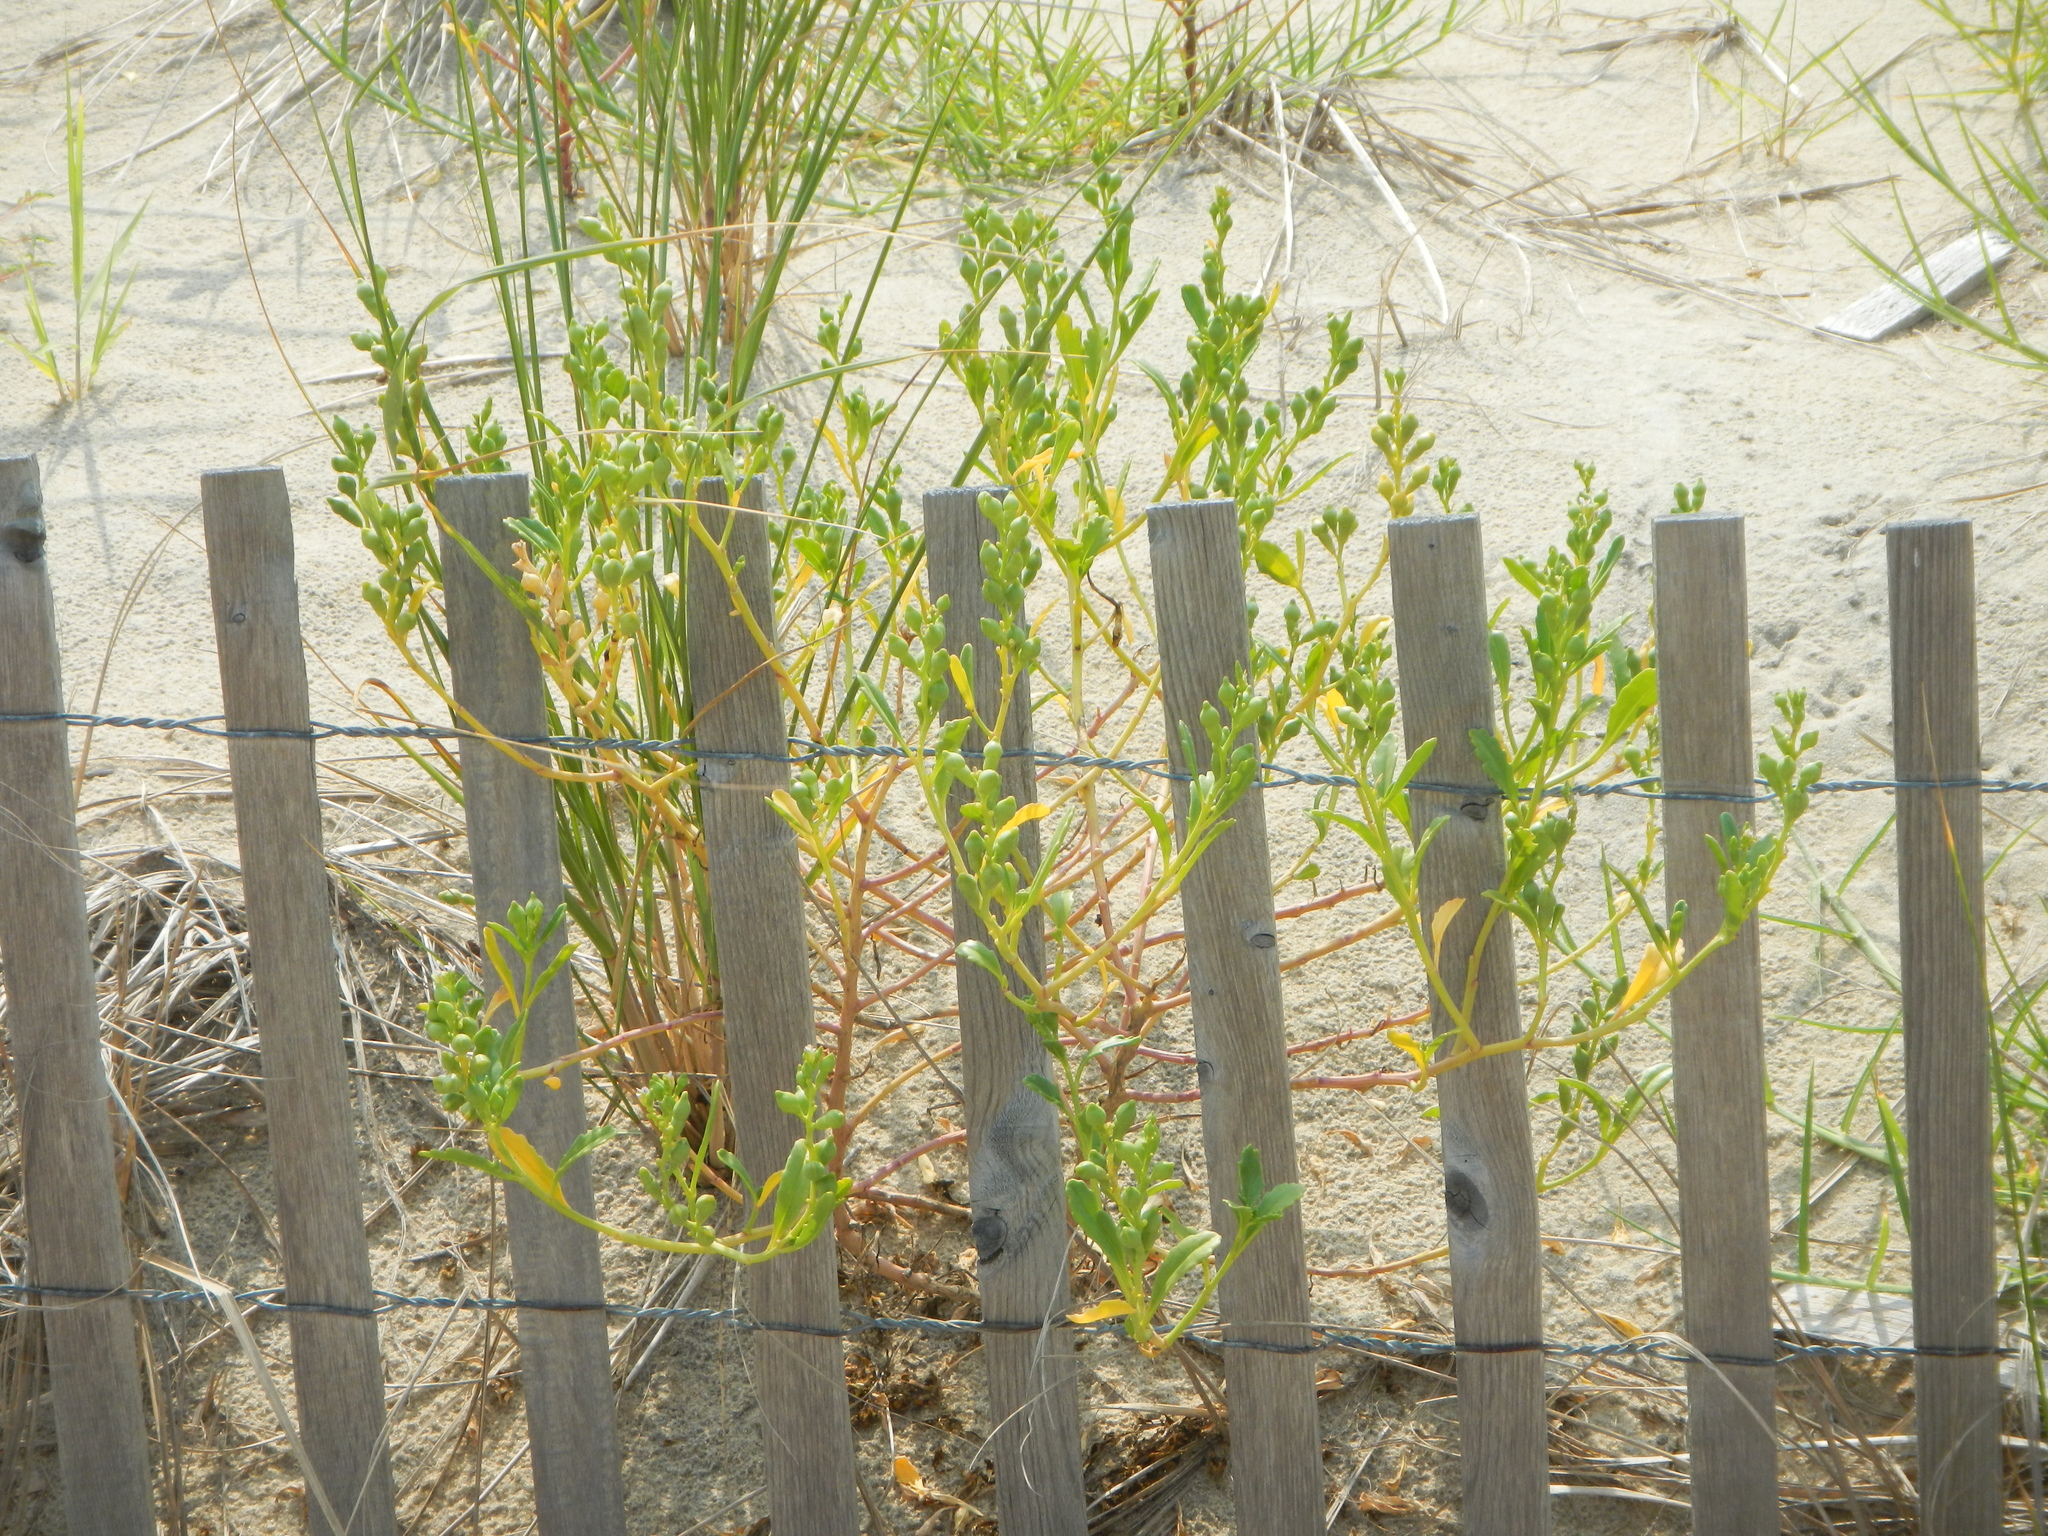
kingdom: Plantae
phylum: Tracheophyta
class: Magnoliopsida
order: Brassicales
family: Brassicaceae
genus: Cakile
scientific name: Cakile edentula
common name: American sea rocket
